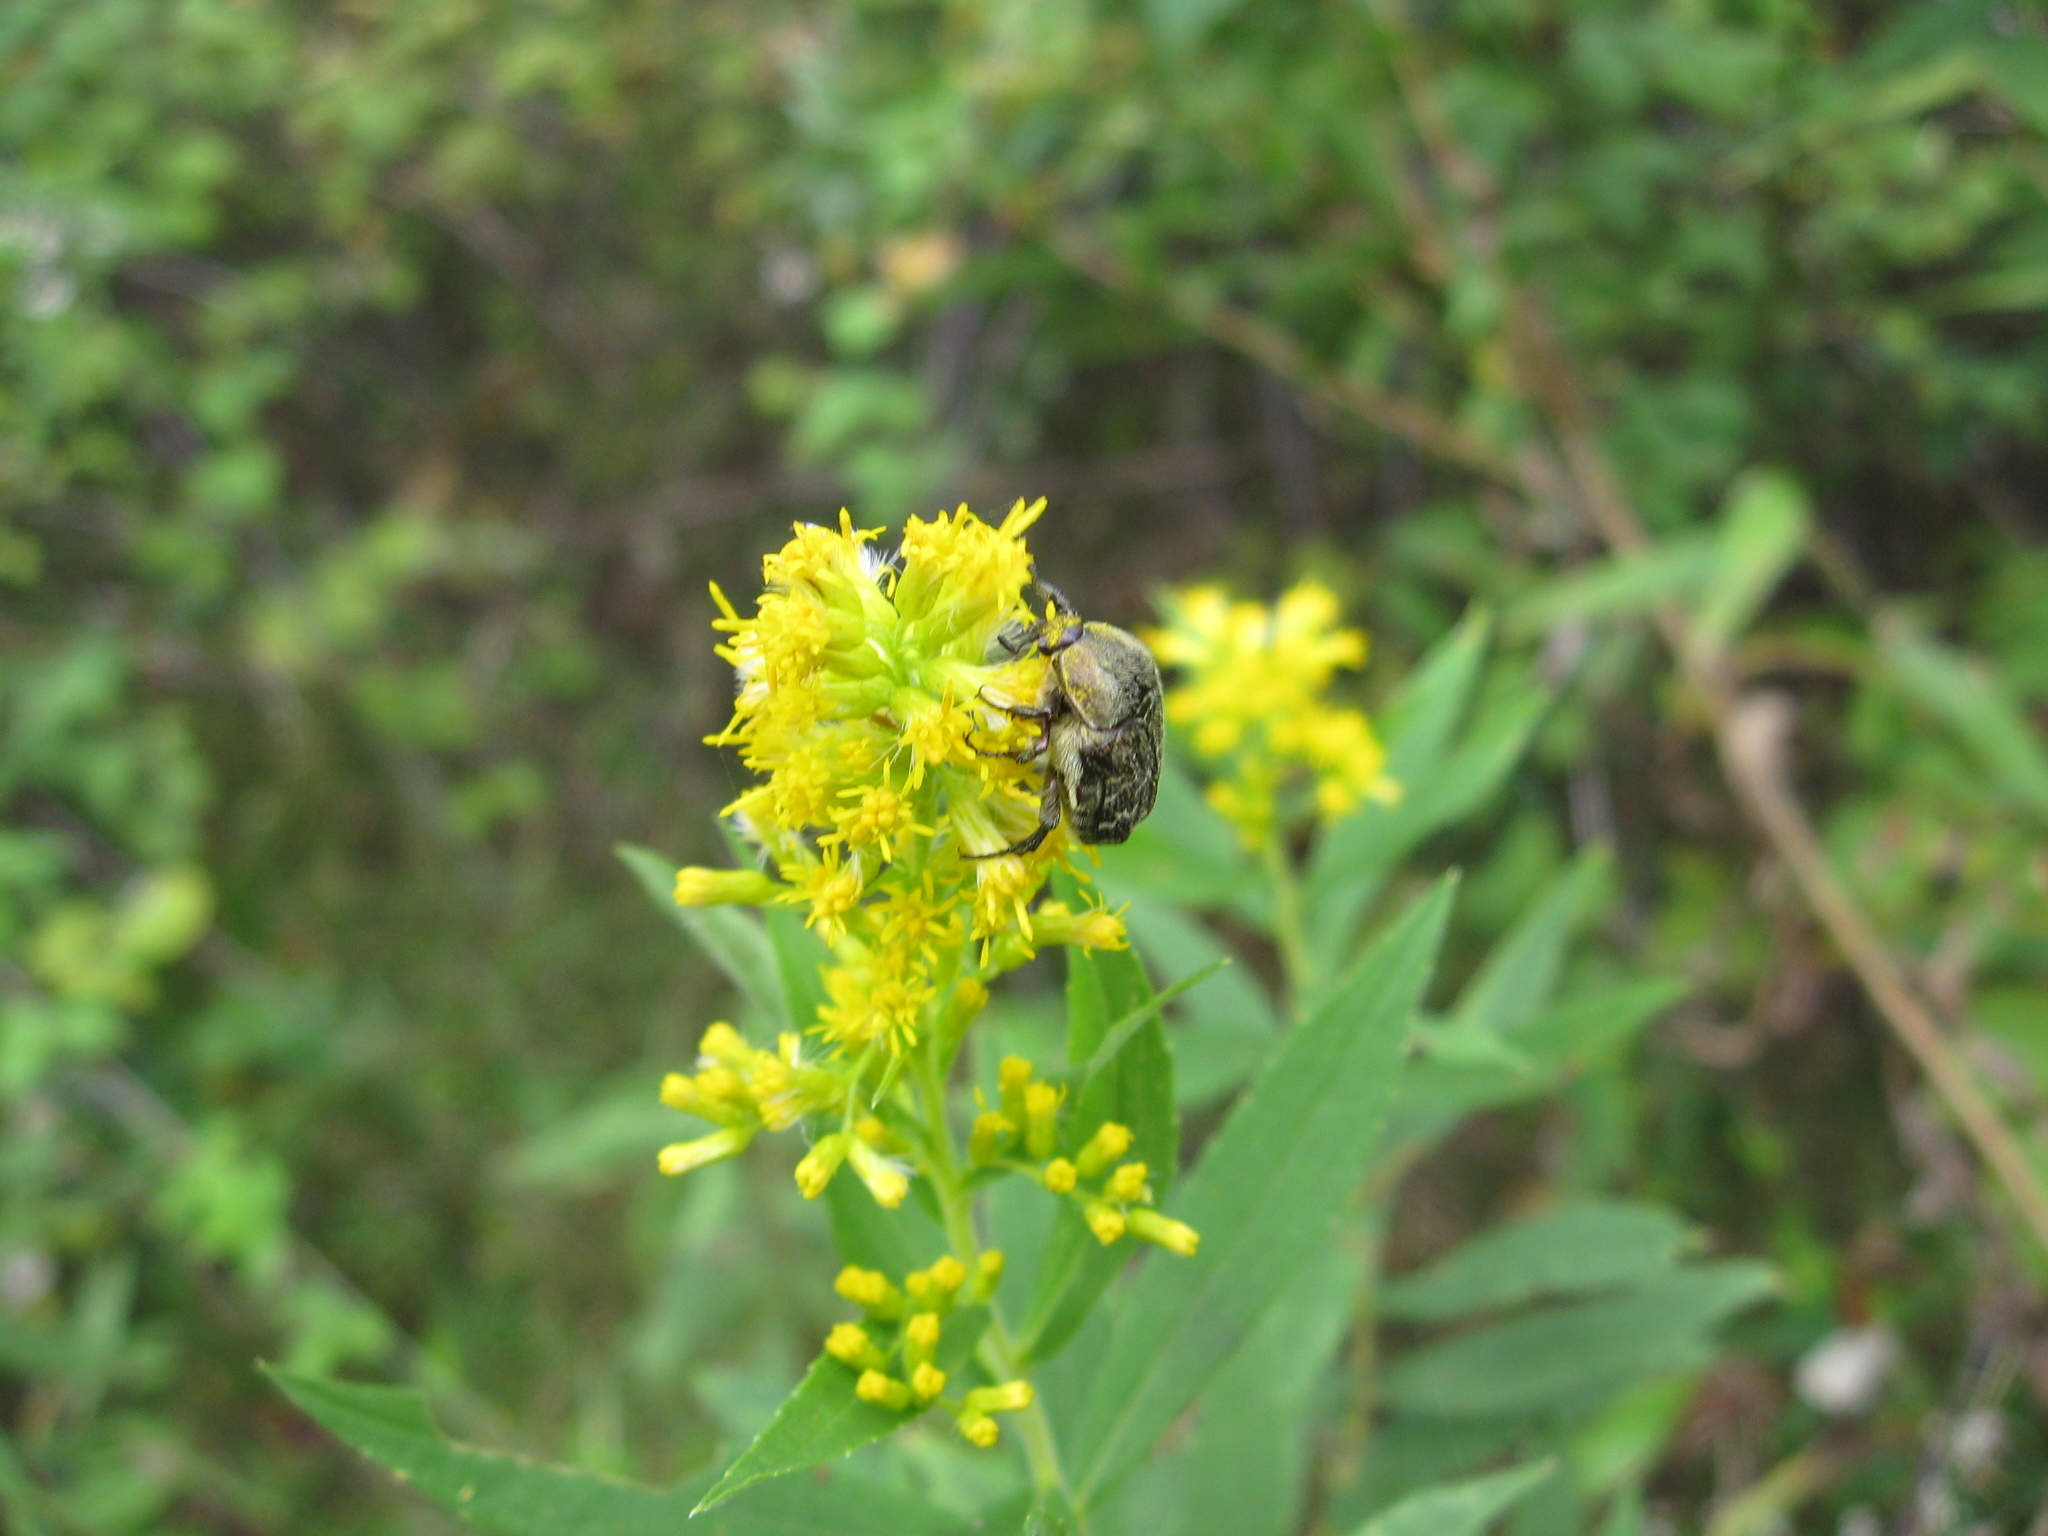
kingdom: Animalia
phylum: Arthropoda
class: Insecta
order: Coleoptera
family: Scarabaeidae
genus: Euphoria
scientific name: Euphoria sepulcralis
